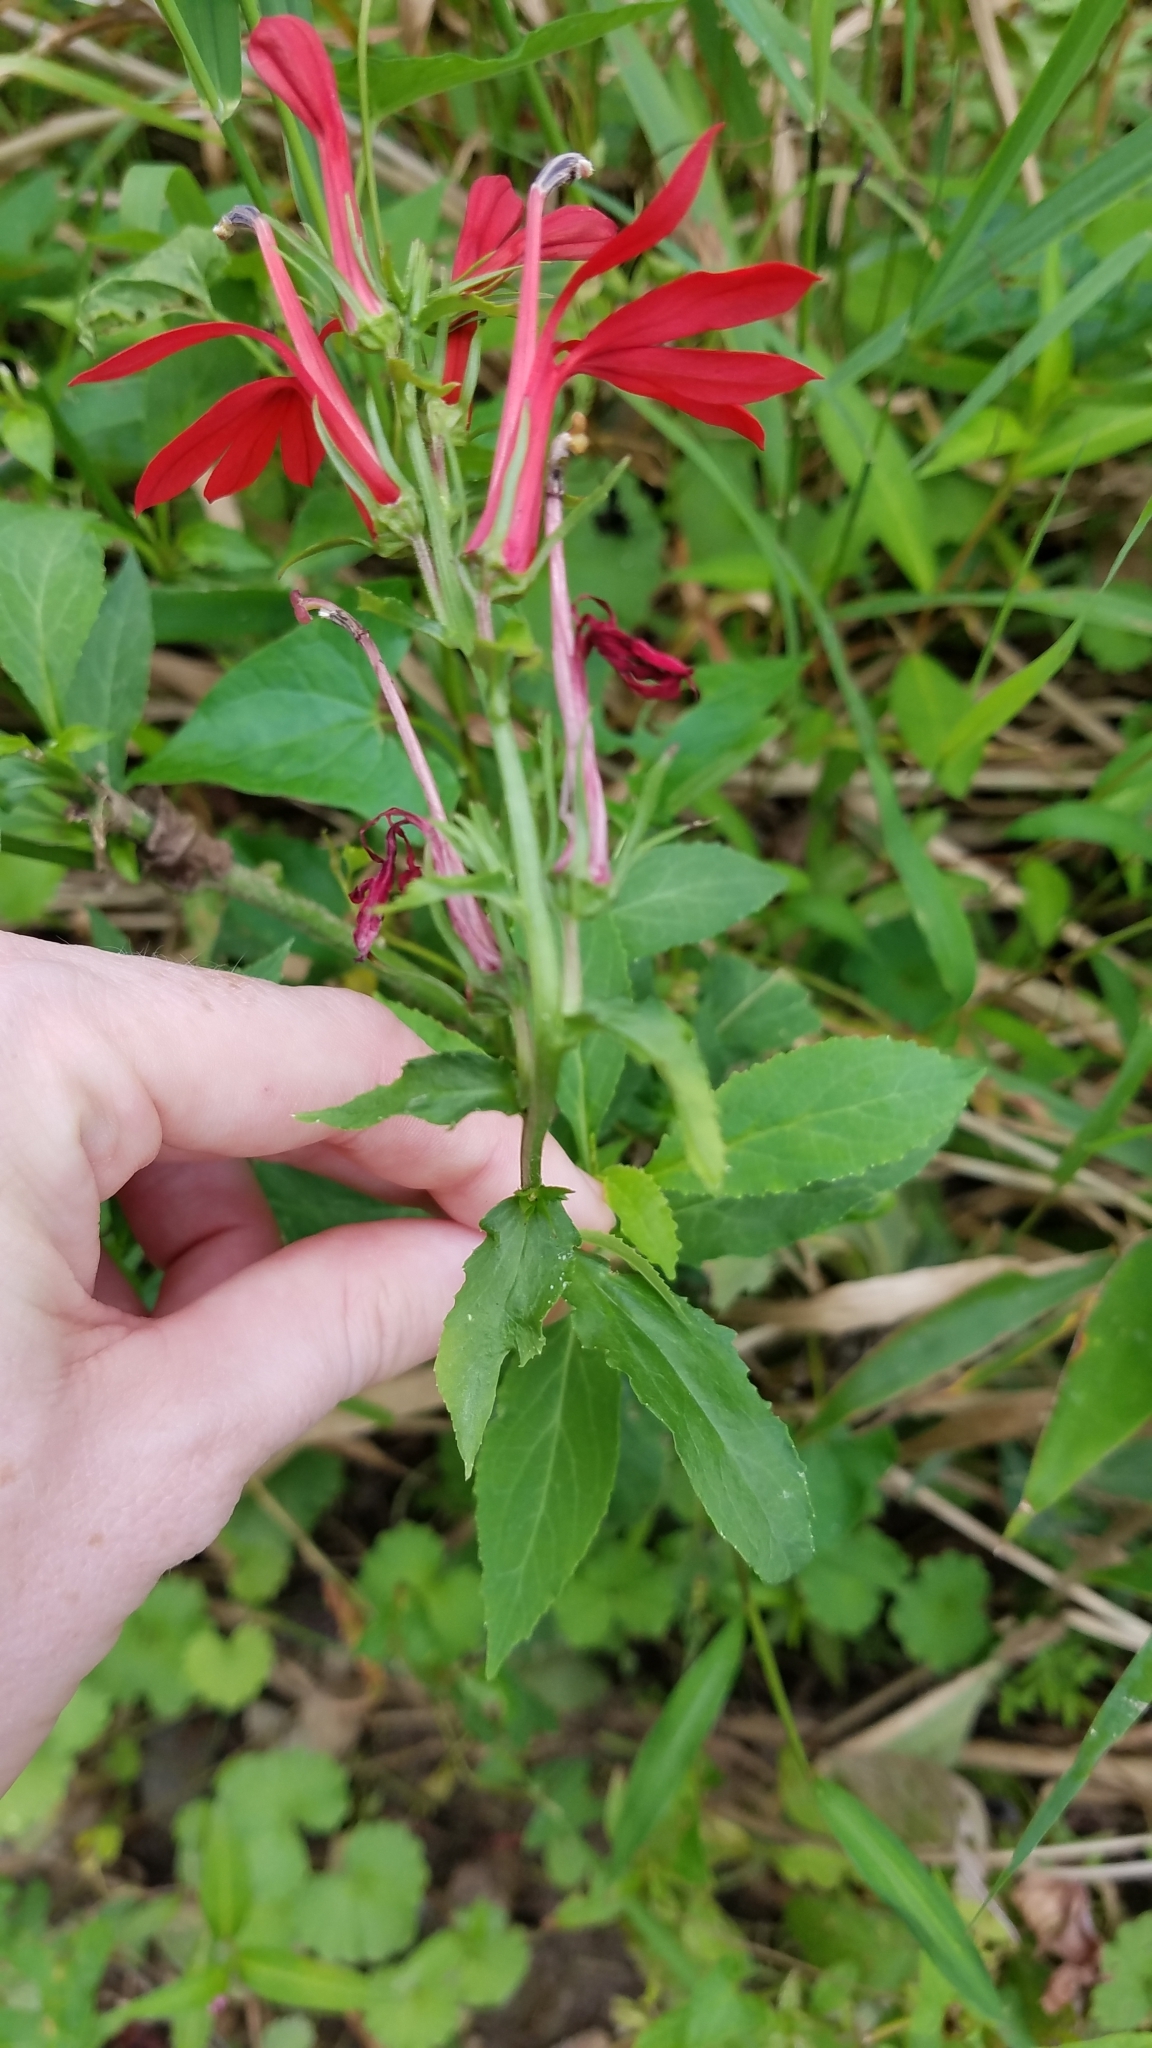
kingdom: Plantae
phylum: Tracheophyta
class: Magnoliopsida
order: Asterales
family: Campanulaceae
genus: Lobelia
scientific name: Lobelia cardinalis
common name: Cardinal flower
